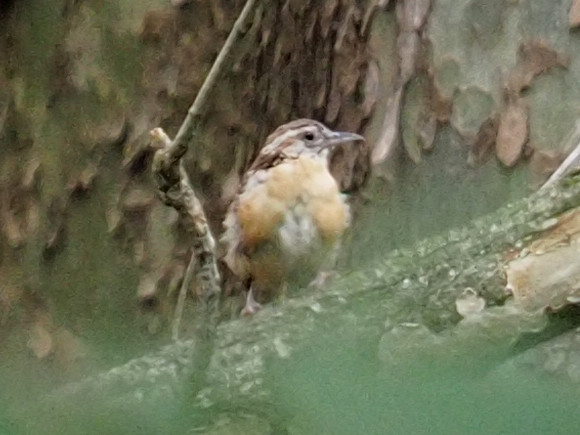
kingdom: Animalia
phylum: Chordata
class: Aves
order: Passeriformes
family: Troglodytidae
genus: Thryothorus
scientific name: Thryothorus ludovicianus
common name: Carolina wren
